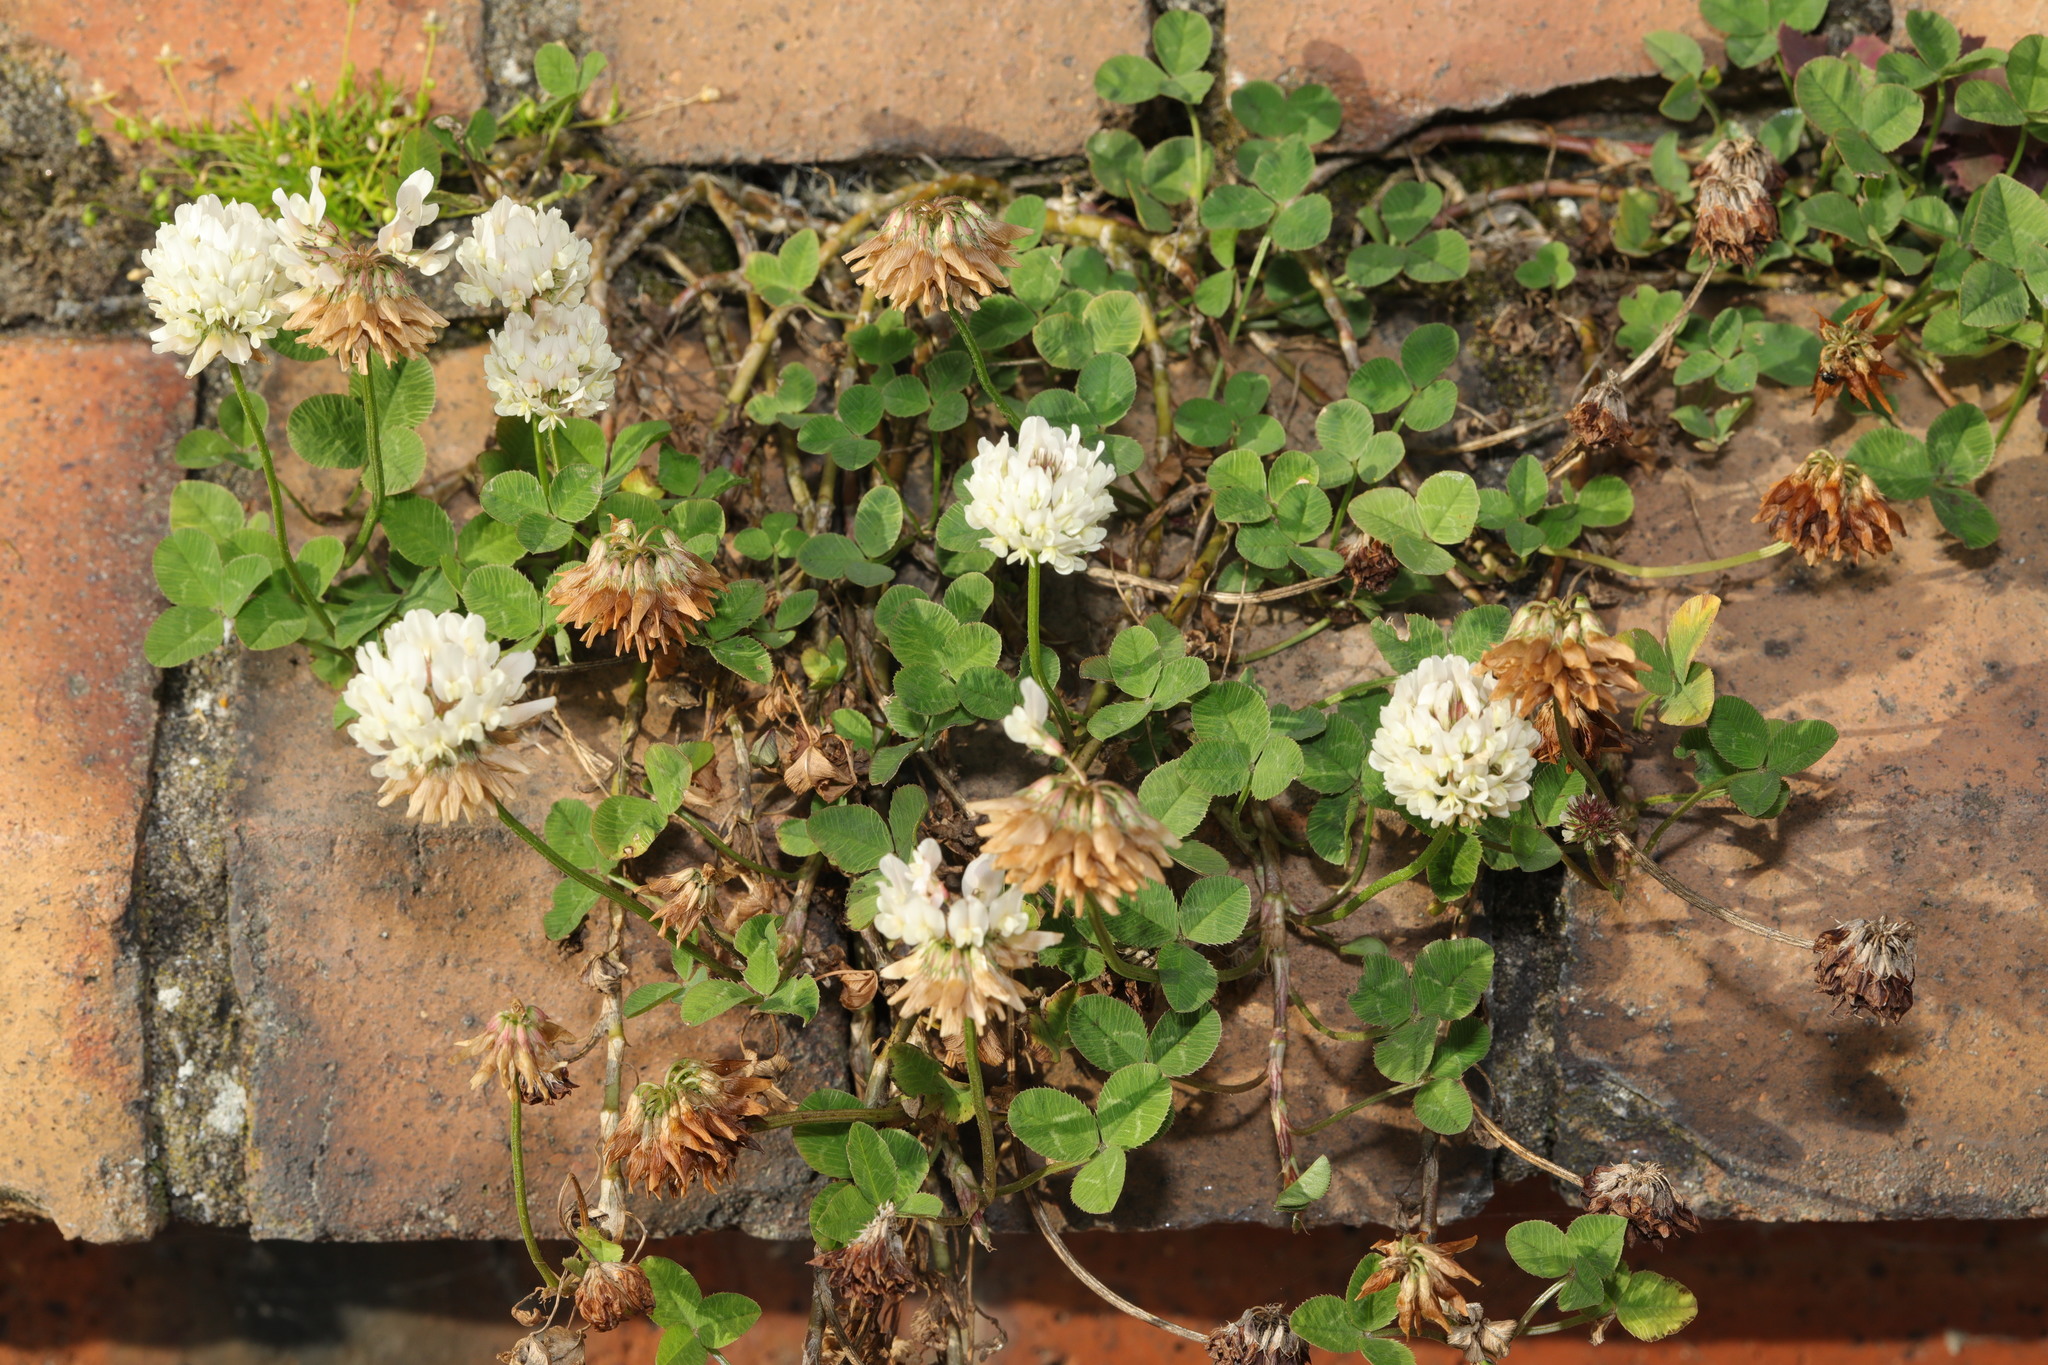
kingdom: Plantae
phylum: Tracheophyta
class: Magnoliopsida
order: Fabales
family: Fabaceae
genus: Trifolium
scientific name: Trifolium repens
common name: White clover
